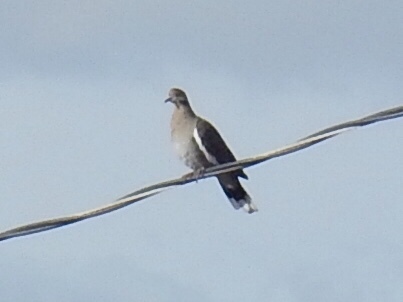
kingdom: Animalia
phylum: Chordata
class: Aves
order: Columbiformes
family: Columbidae
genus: Zenaida
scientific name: Zenaida asiatica
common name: White-winged dove
